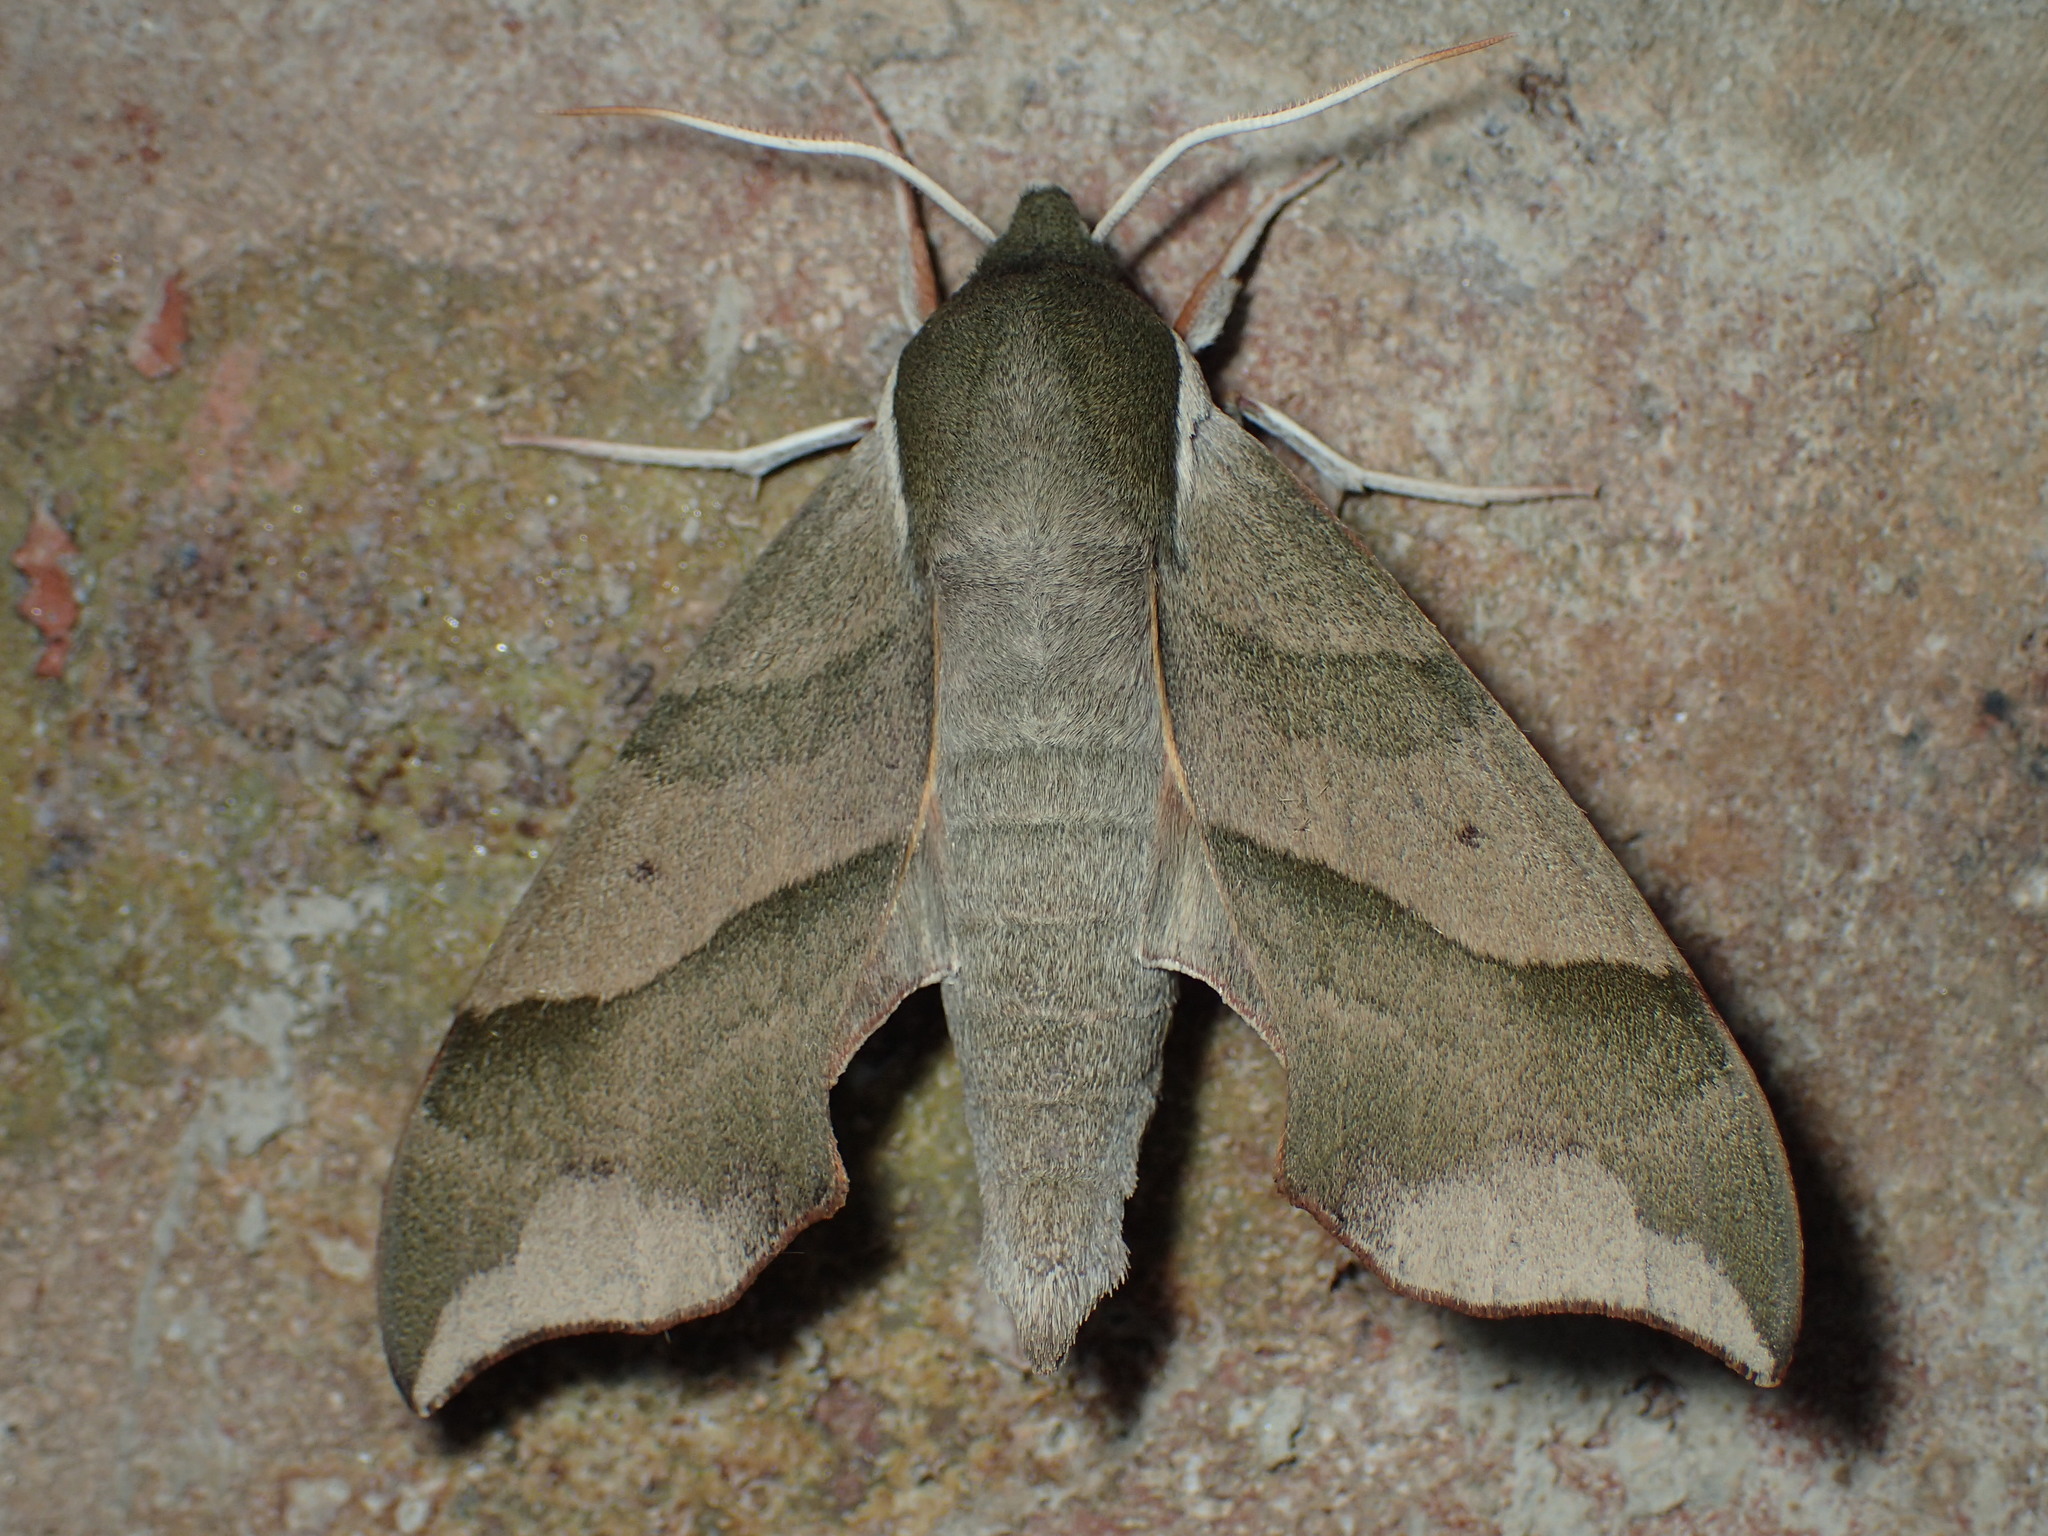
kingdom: Animalia
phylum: Arthropoda
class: Insecta
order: Lepidoptera
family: Sphingidae
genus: Darapsa
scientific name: Darapsa myron
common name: Hog sphinx
